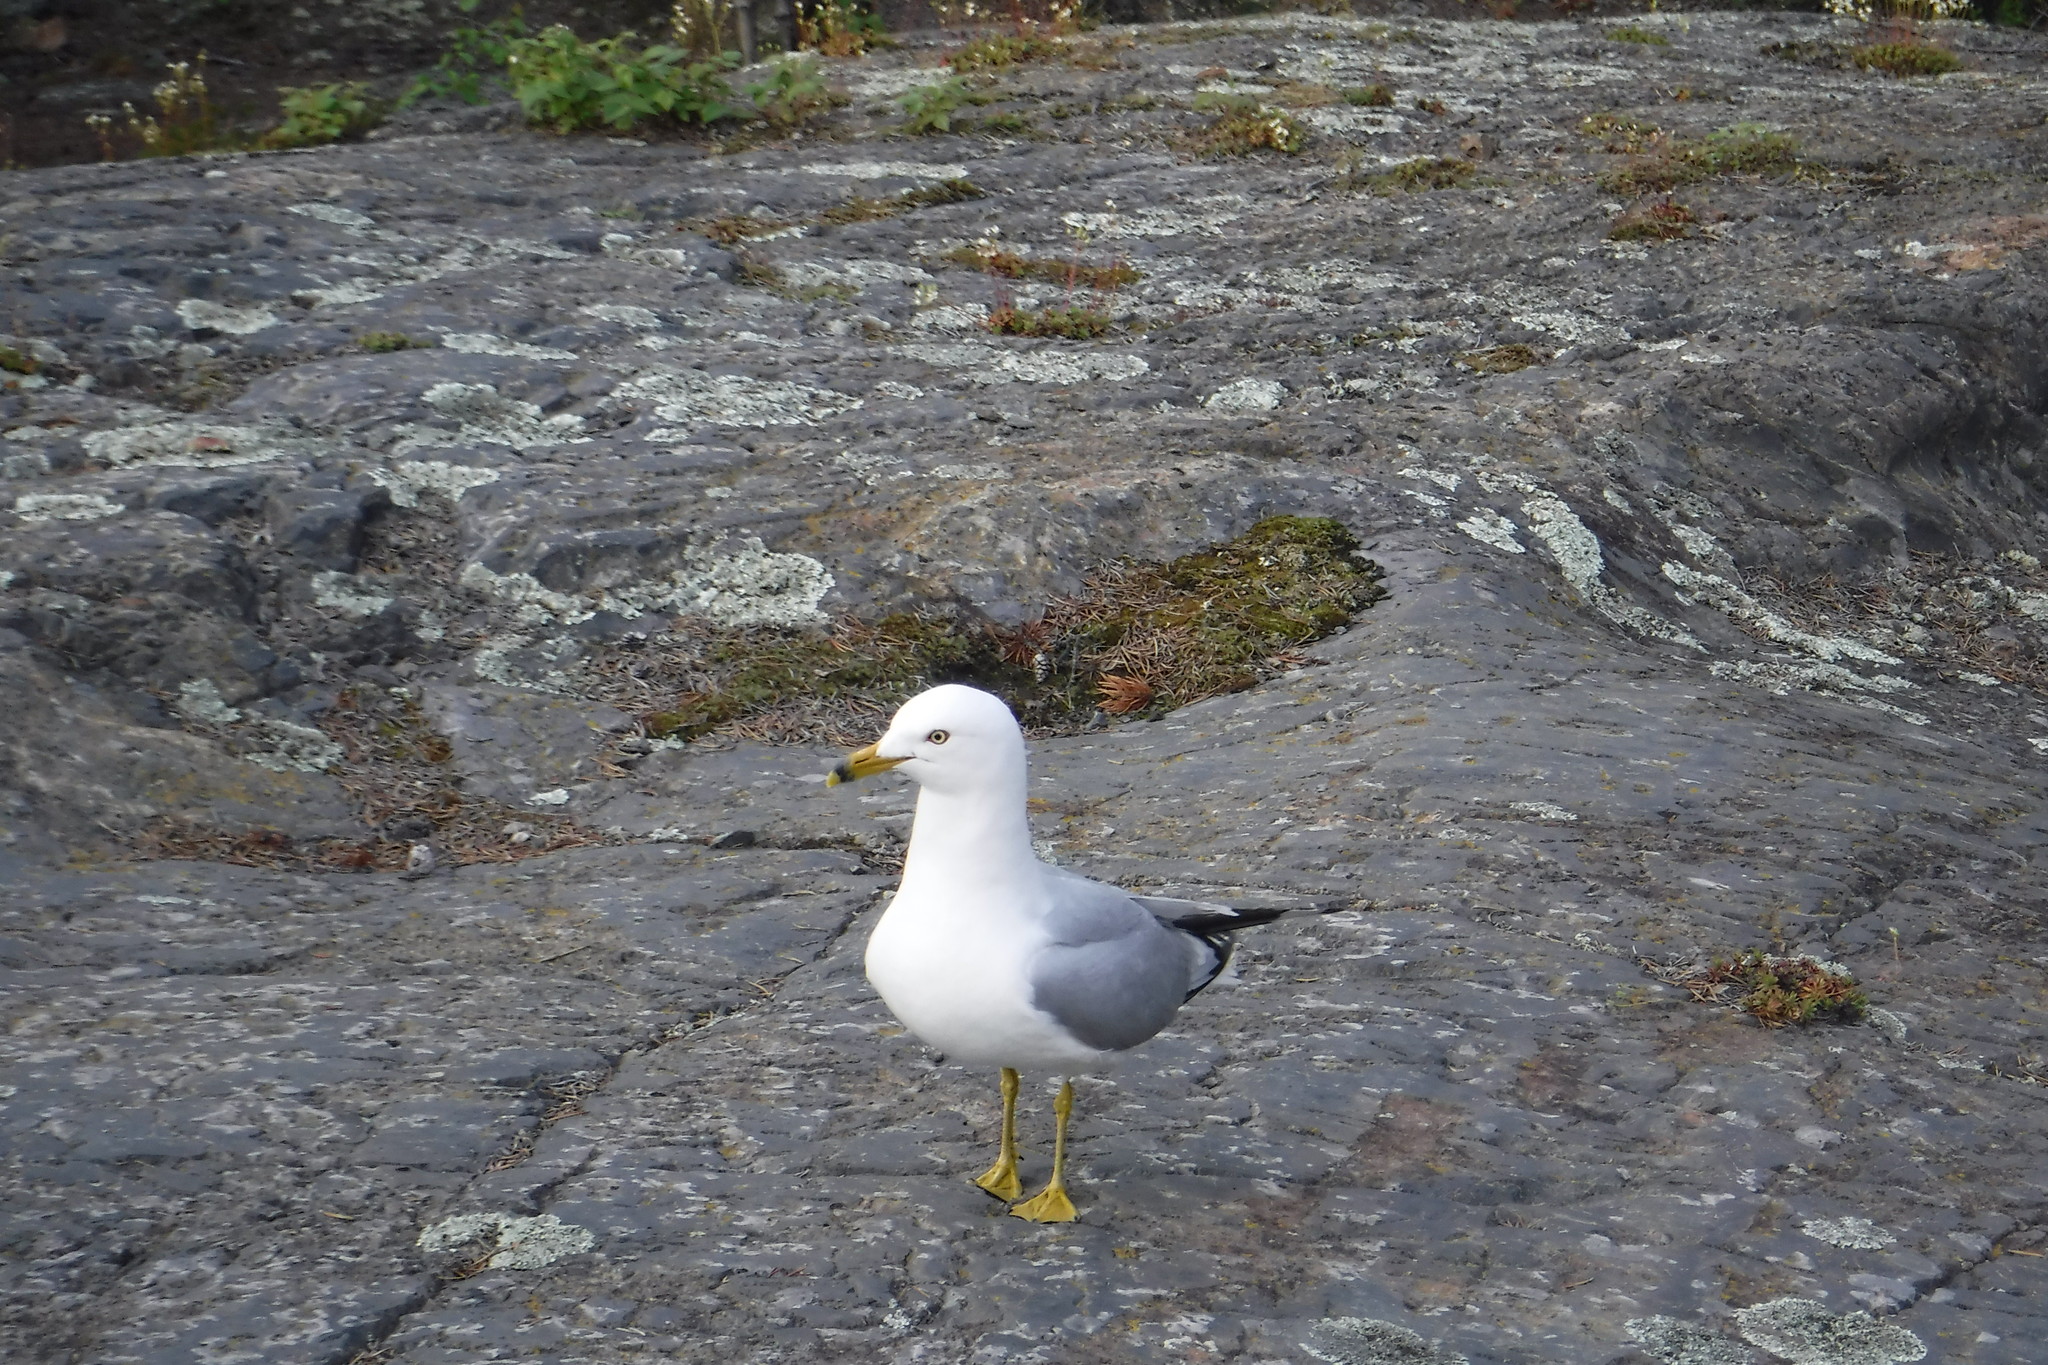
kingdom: Animalia
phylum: Chordata
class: Aves
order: Charadriiformes
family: Laridae
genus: Larus
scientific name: Larus delawarensis
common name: Ring-billed gull
